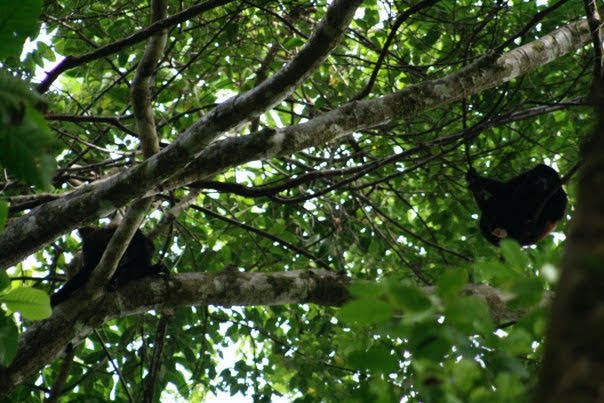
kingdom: Animalia
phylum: Chordata
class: Mammalia
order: Primates
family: Atelidae
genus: Alouatta
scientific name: Alouatta palliata
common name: Mantled howler
